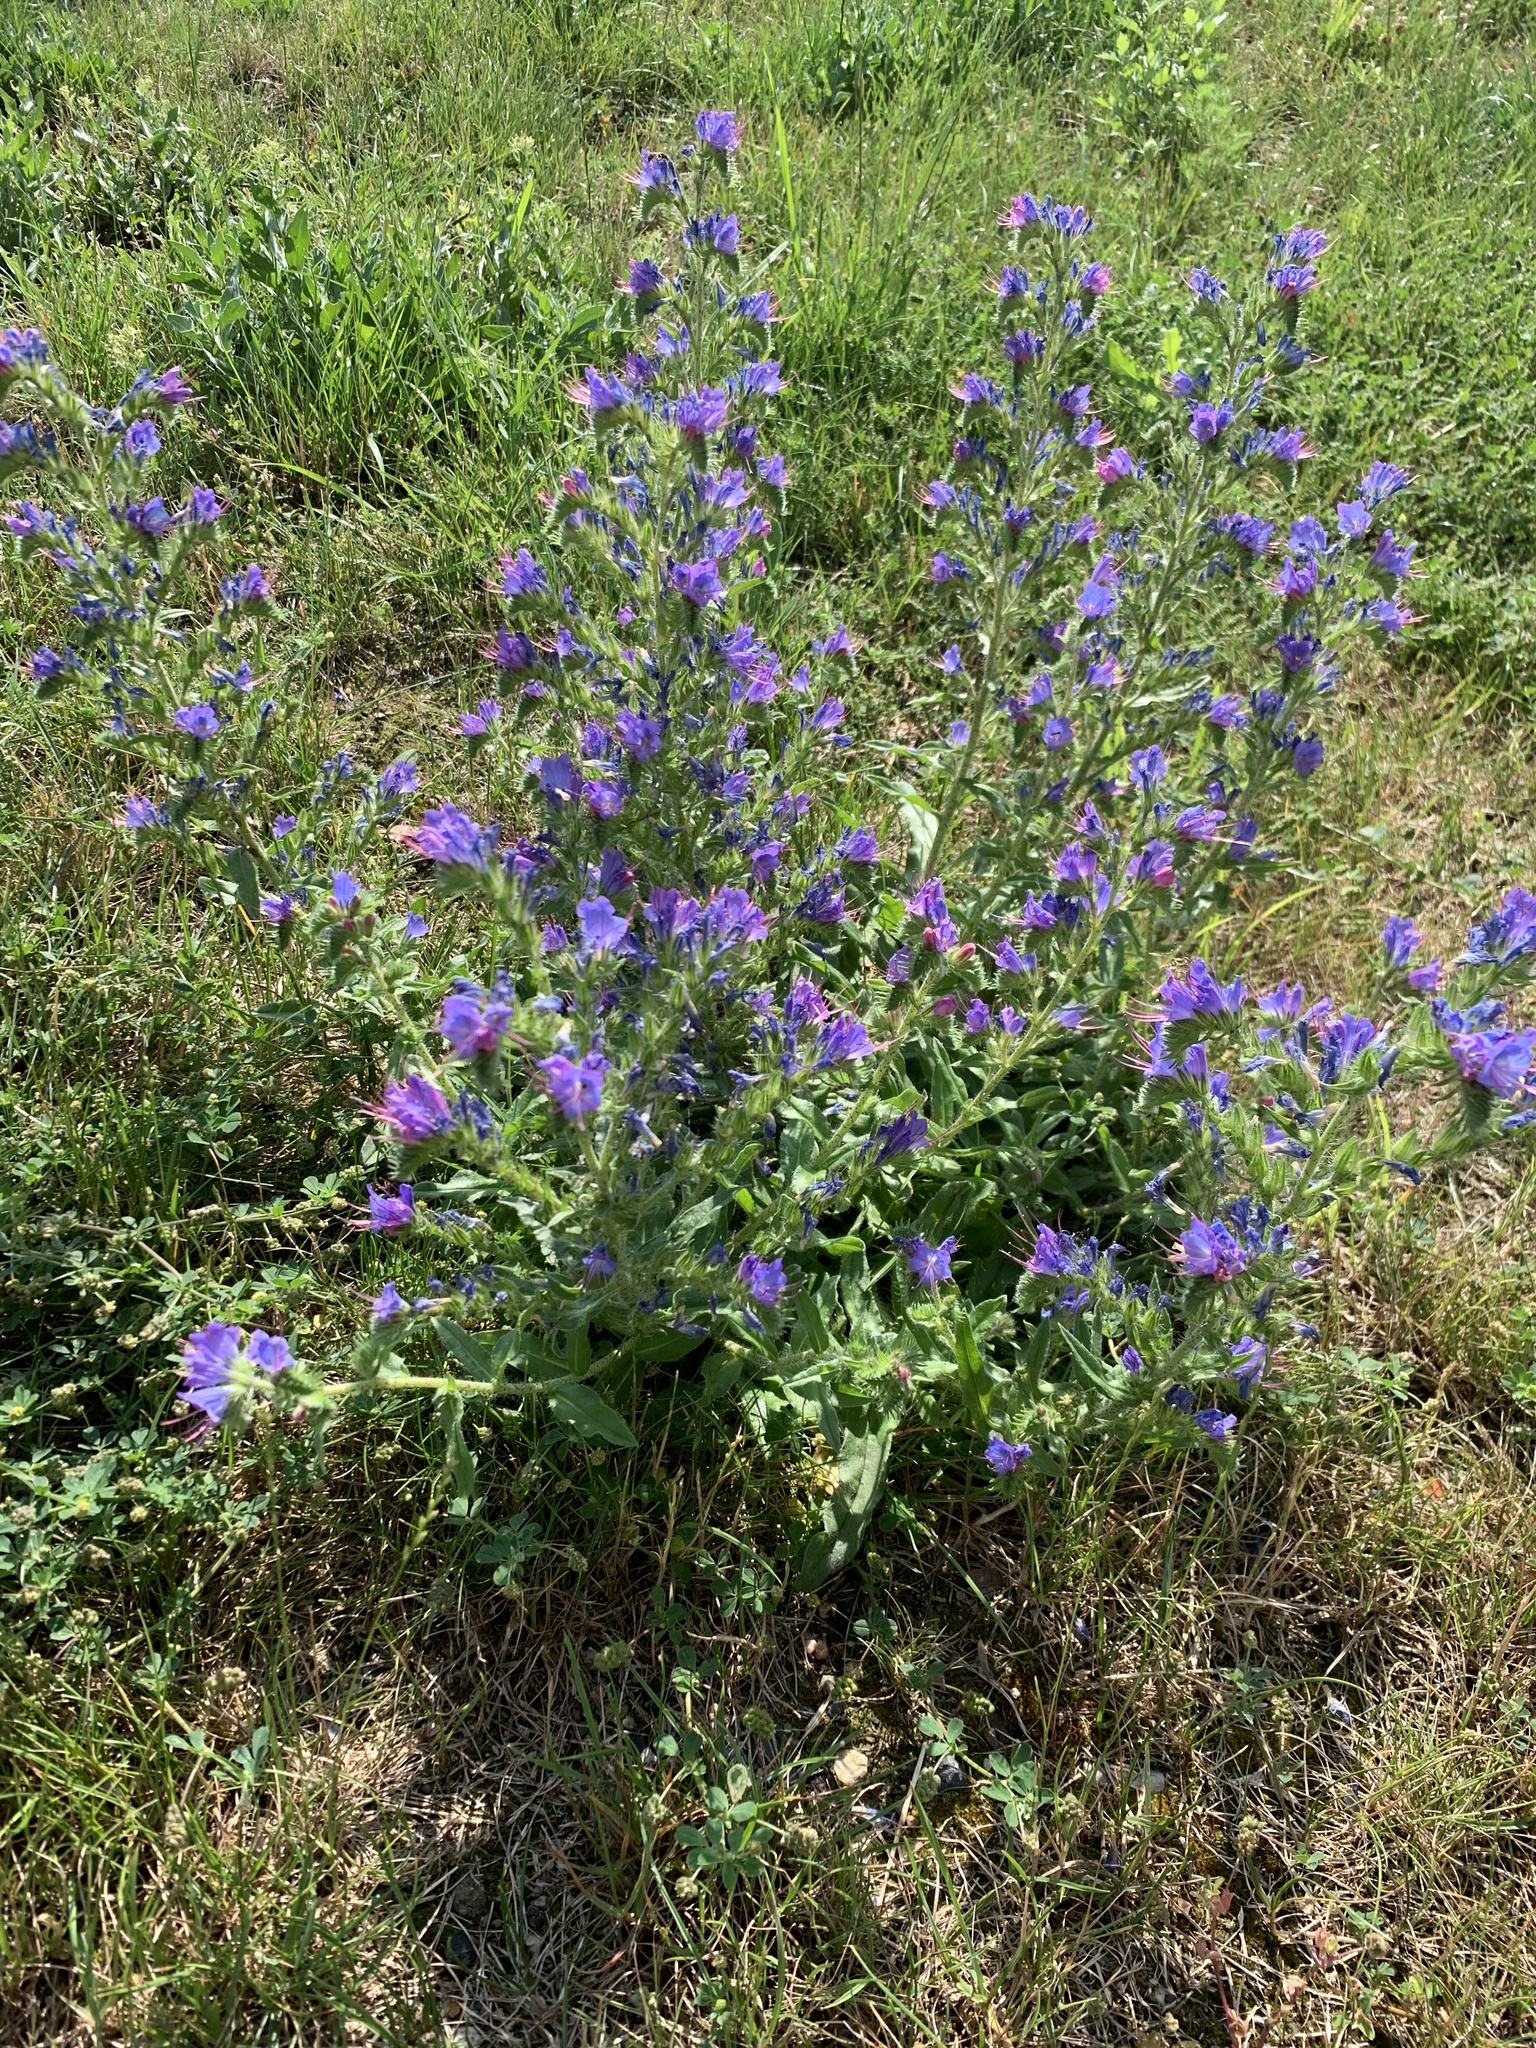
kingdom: Plantae
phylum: Tracheophyta
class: Magnoliopsida
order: Boraginales
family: Boraginaceae
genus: Echium
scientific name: Echium vulgare
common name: Common viper's bugloss
